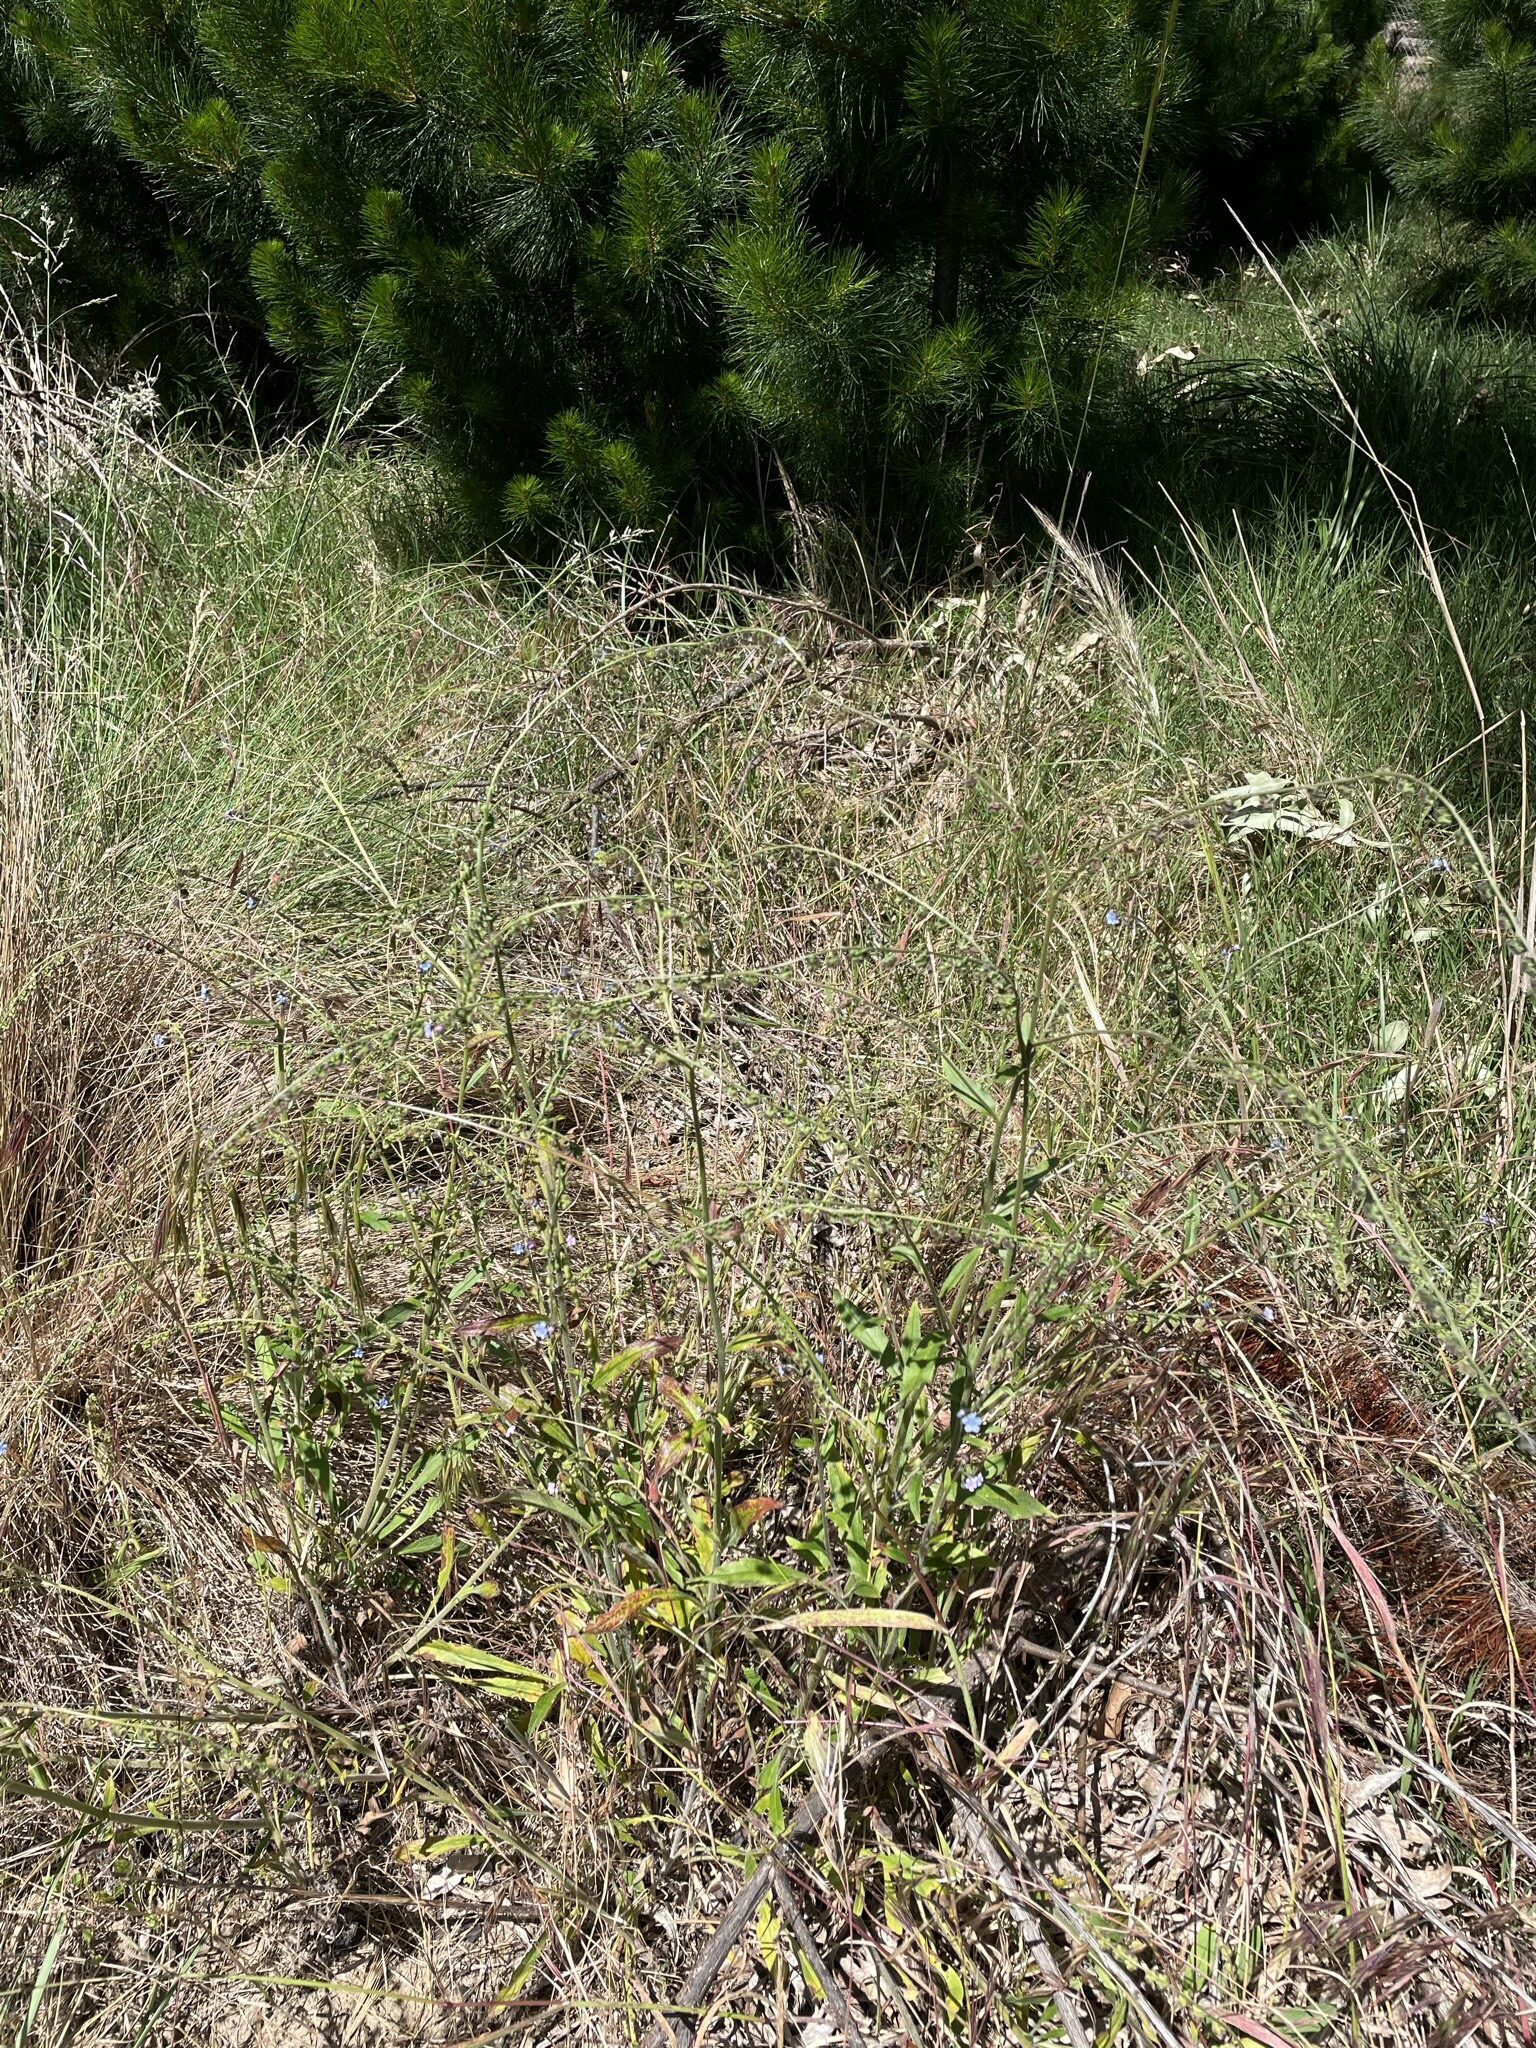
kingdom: Plantae
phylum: Tracheophyta
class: Magnoliopsida
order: Boraginales
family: Boraginaceae
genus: Cynoglossum
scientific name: Cynoglossum australe
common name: Australian hound's-tongue
